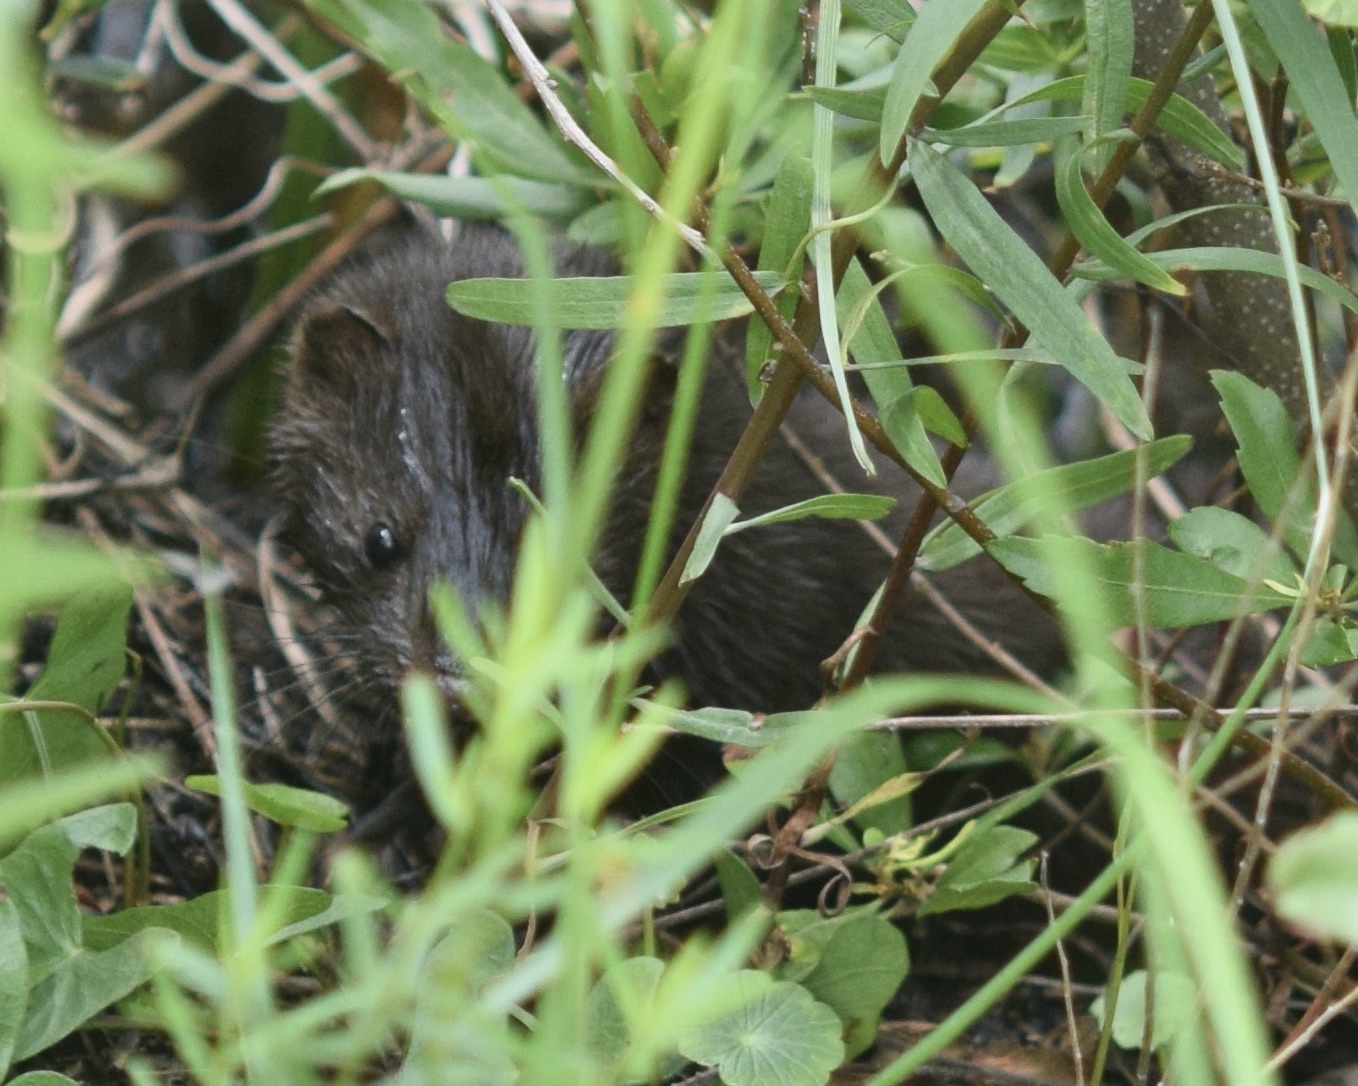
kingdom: Animalia
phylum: Chordata
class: Mammalia
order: Carnivora
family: Mustelidae
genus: Mustela
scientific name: Mustela
